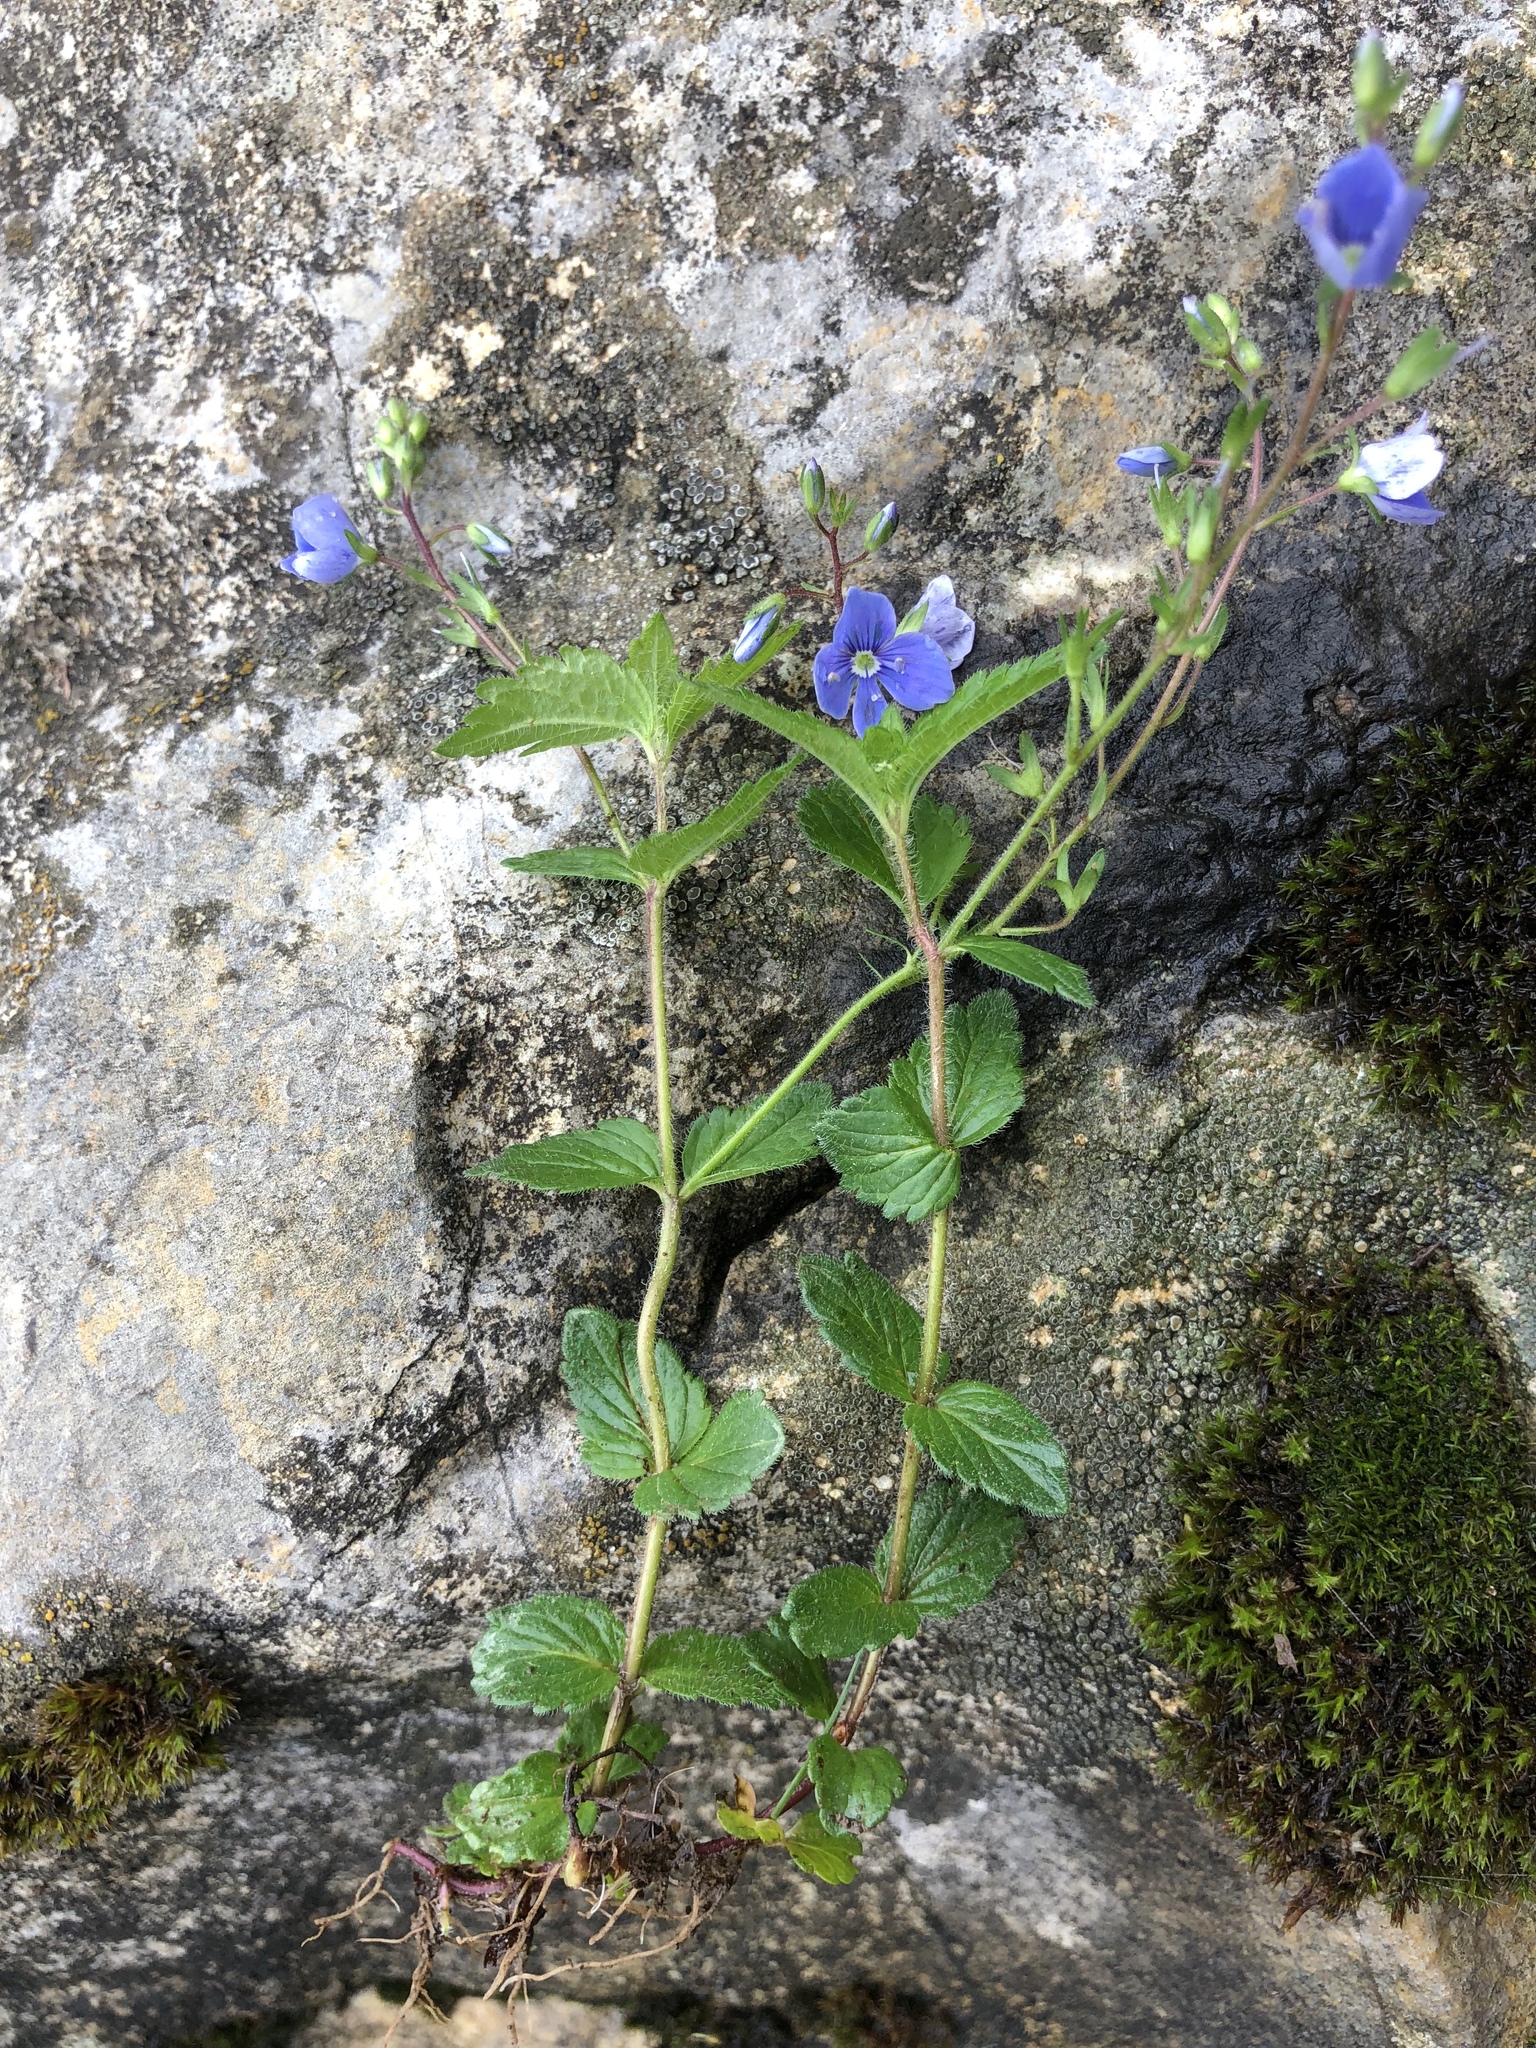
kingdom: Plantae
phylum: Tracheophyta
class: Magnoliopsida
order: Lamiales
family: Plantaginaceae
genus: Veronica
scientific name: Veronica chamaedrys
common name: Germander speedwell
